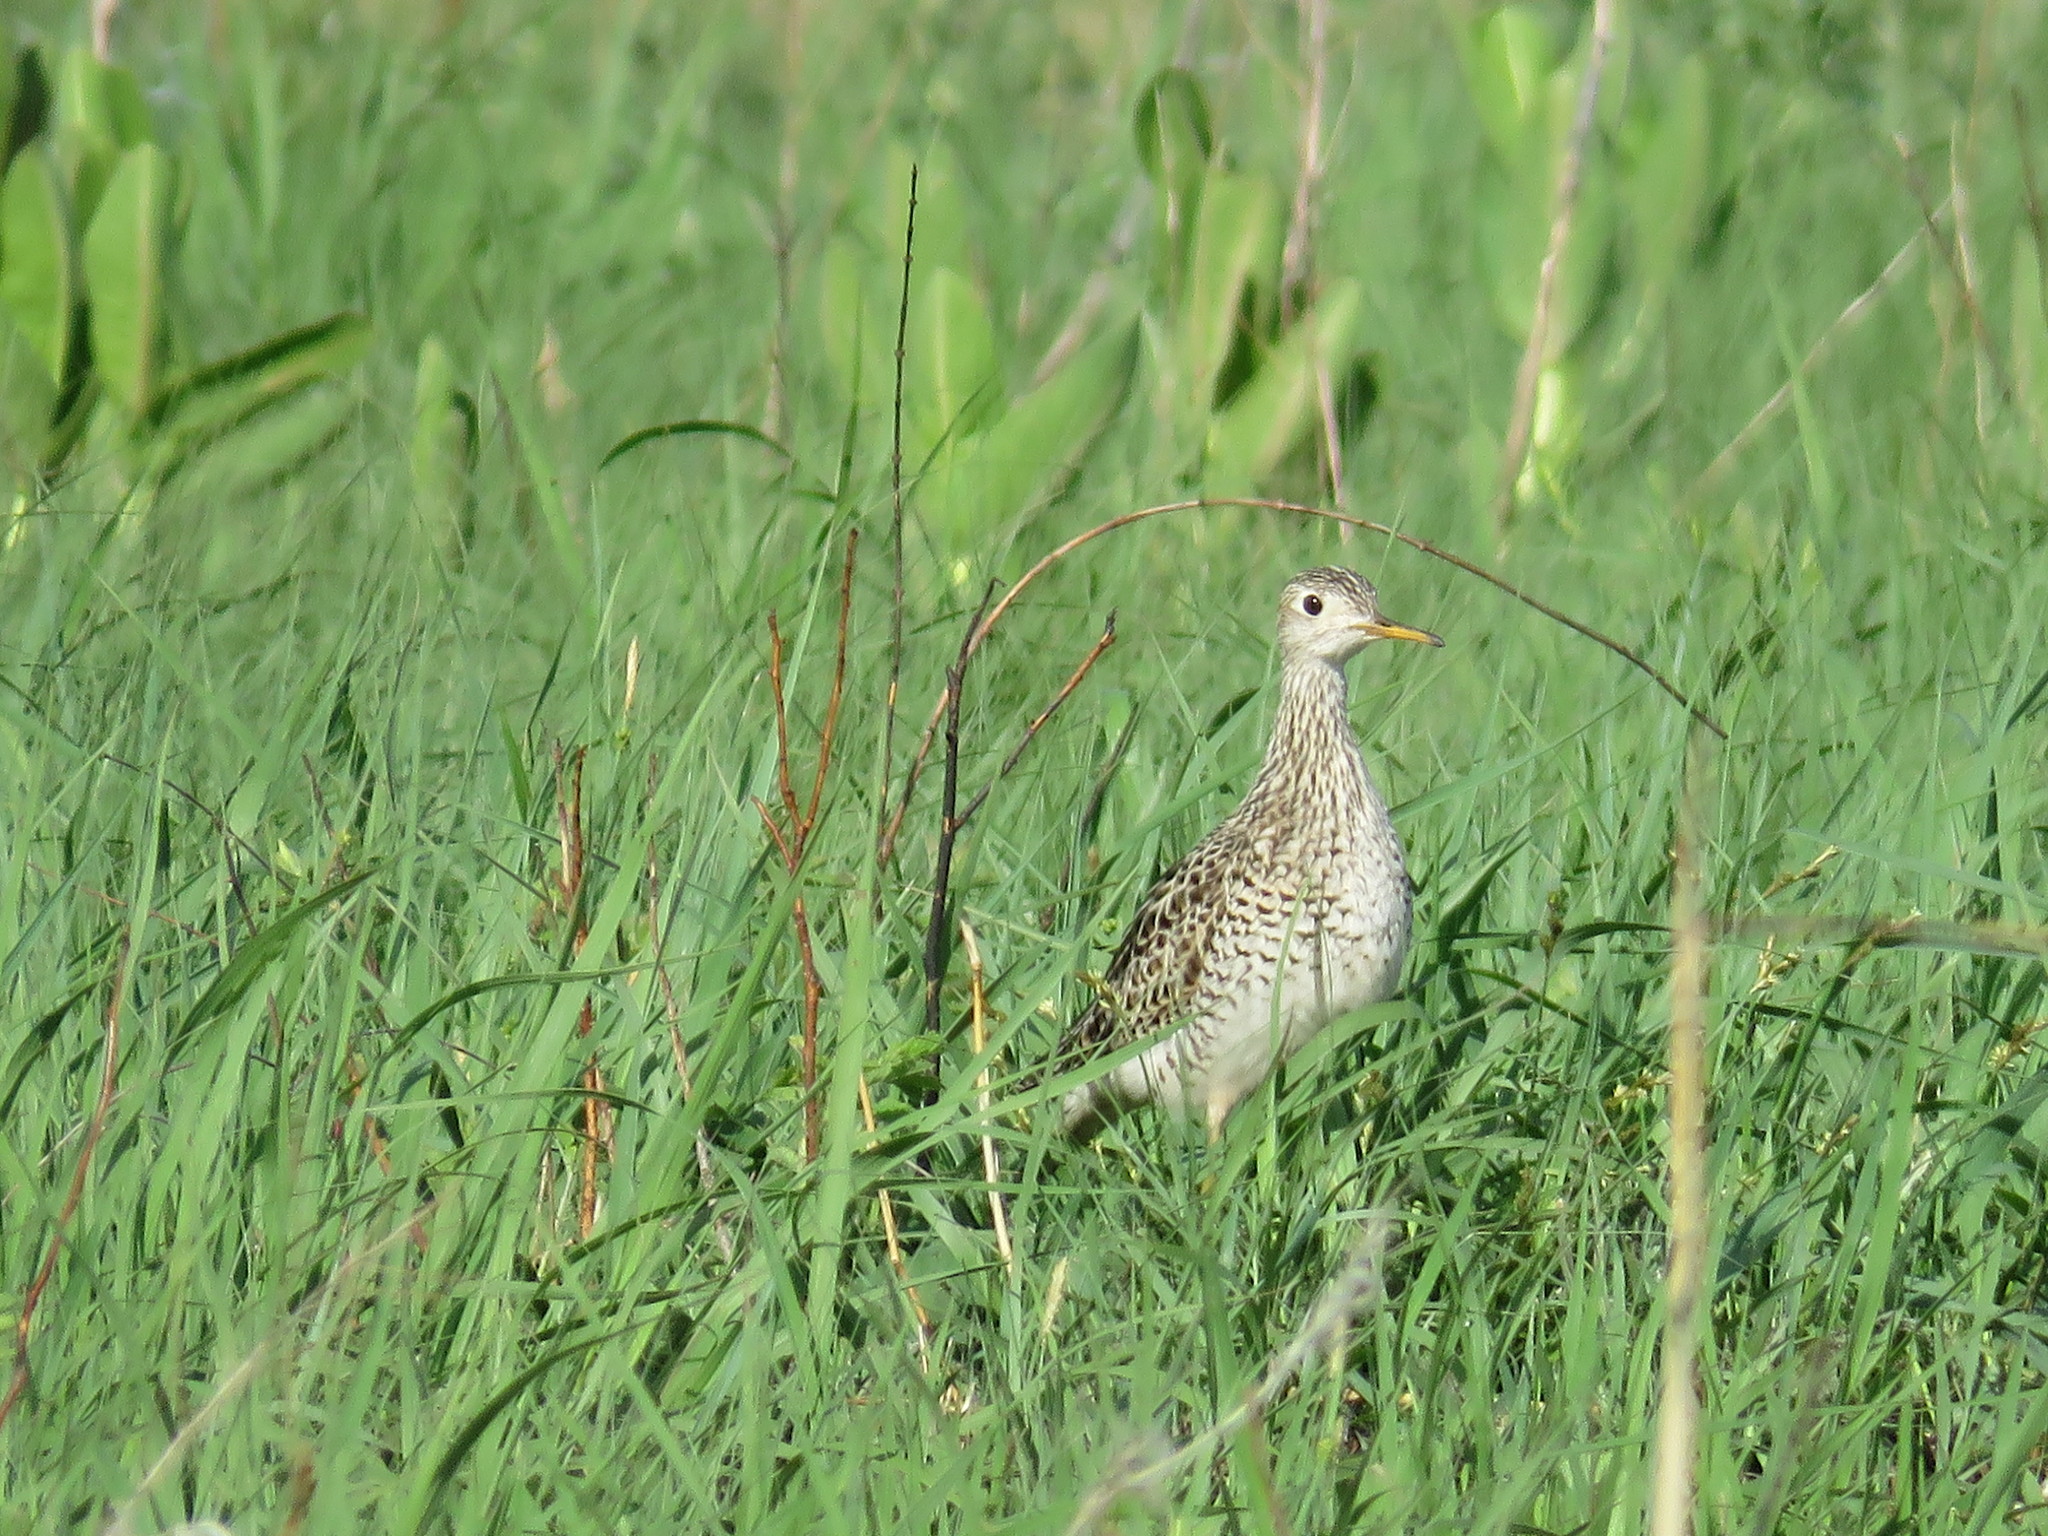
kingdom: Animalia
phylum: Chordata
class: Aves
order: Charadriiformes
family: Scolopacidae
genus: Bartramia
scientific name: Bartramia longicauda
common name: Upland sandpiper
